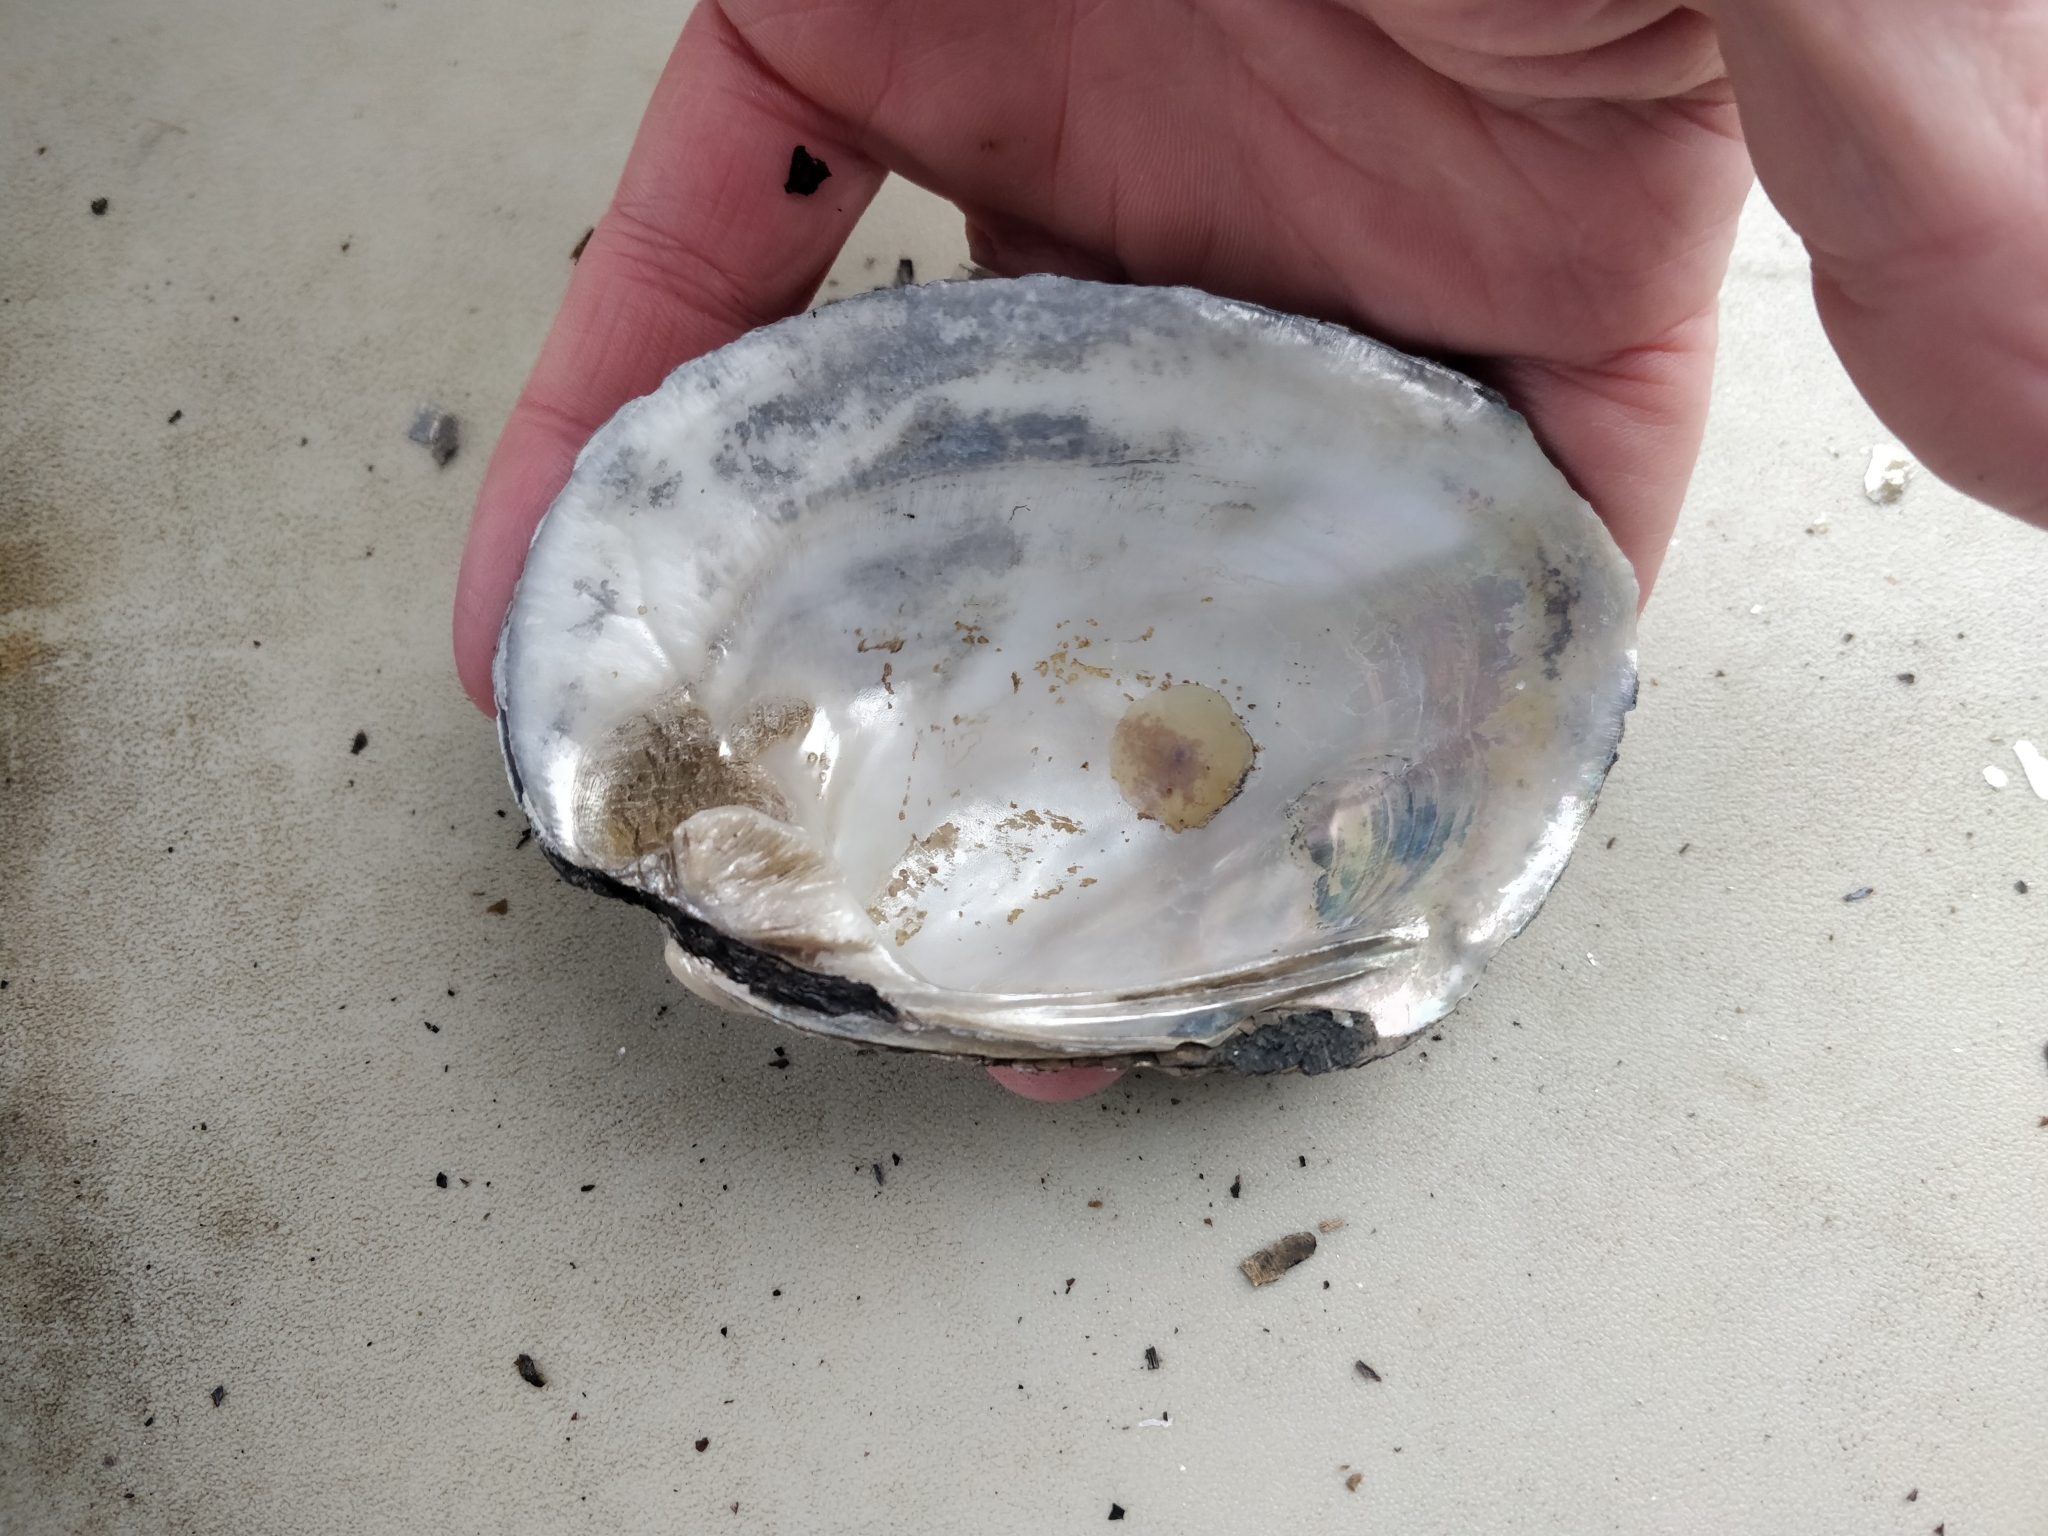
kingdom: Animalia
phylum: Mollusca
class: Bivalvia
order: Unionida
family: Unionidae
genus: Amblema
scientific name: Amblema plicata
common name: Threeridge
